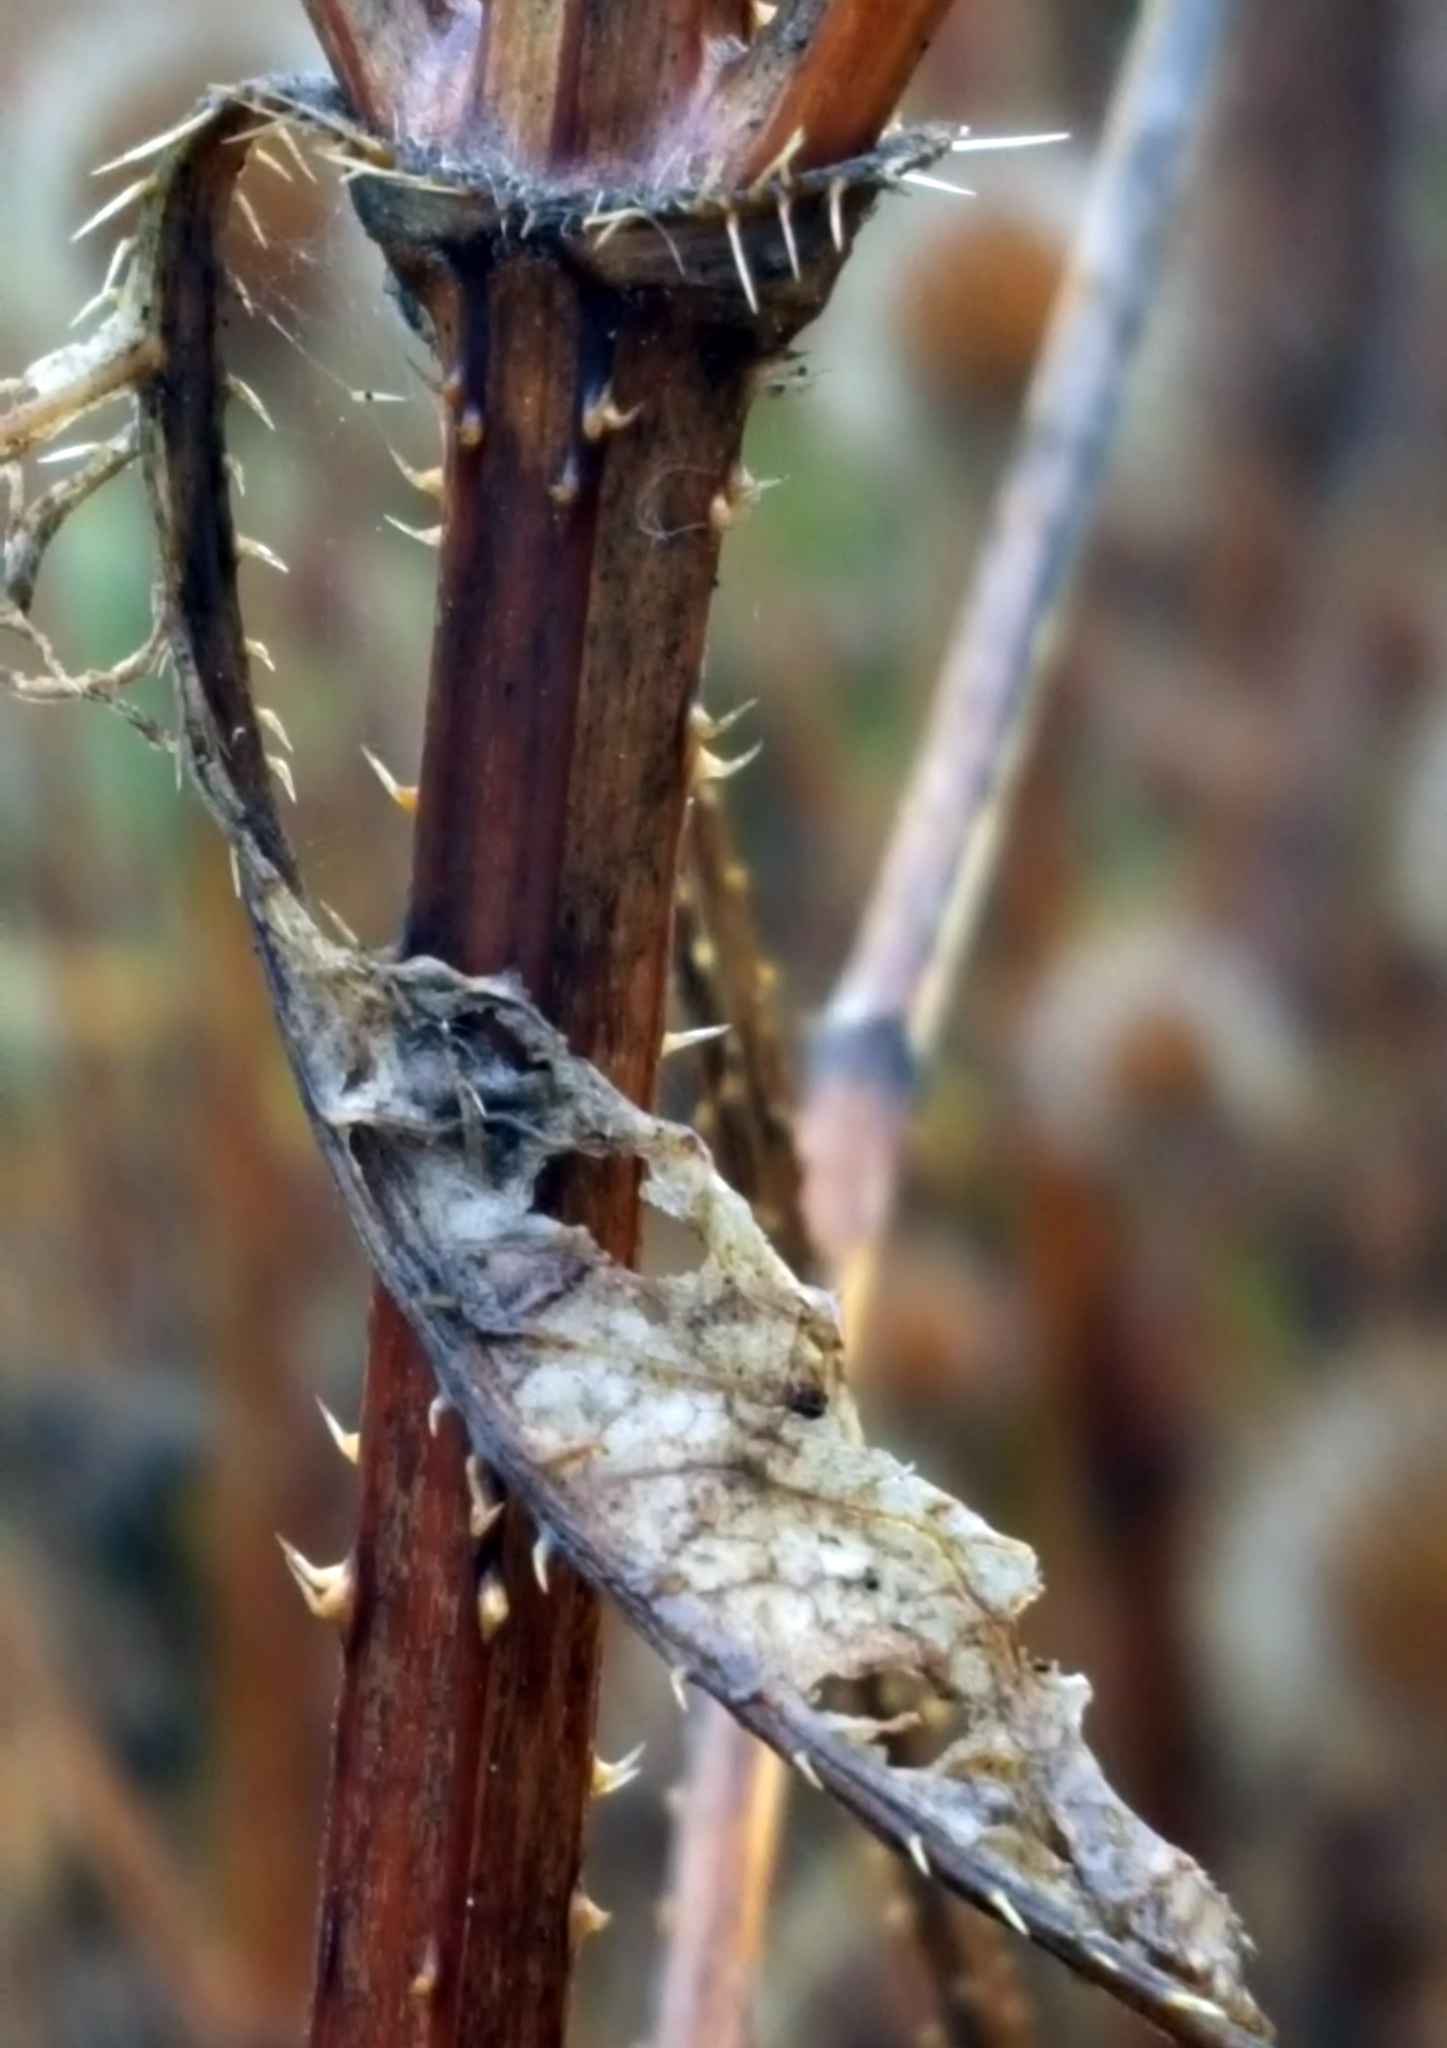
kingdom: Plantae
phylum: Tracheophyta
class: Magnoliopsida
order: Dipsacales
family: Caprifoliaceae
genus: Dipsacus
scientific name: Dipsacus strigosus
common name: Yellow-flowered teasel
